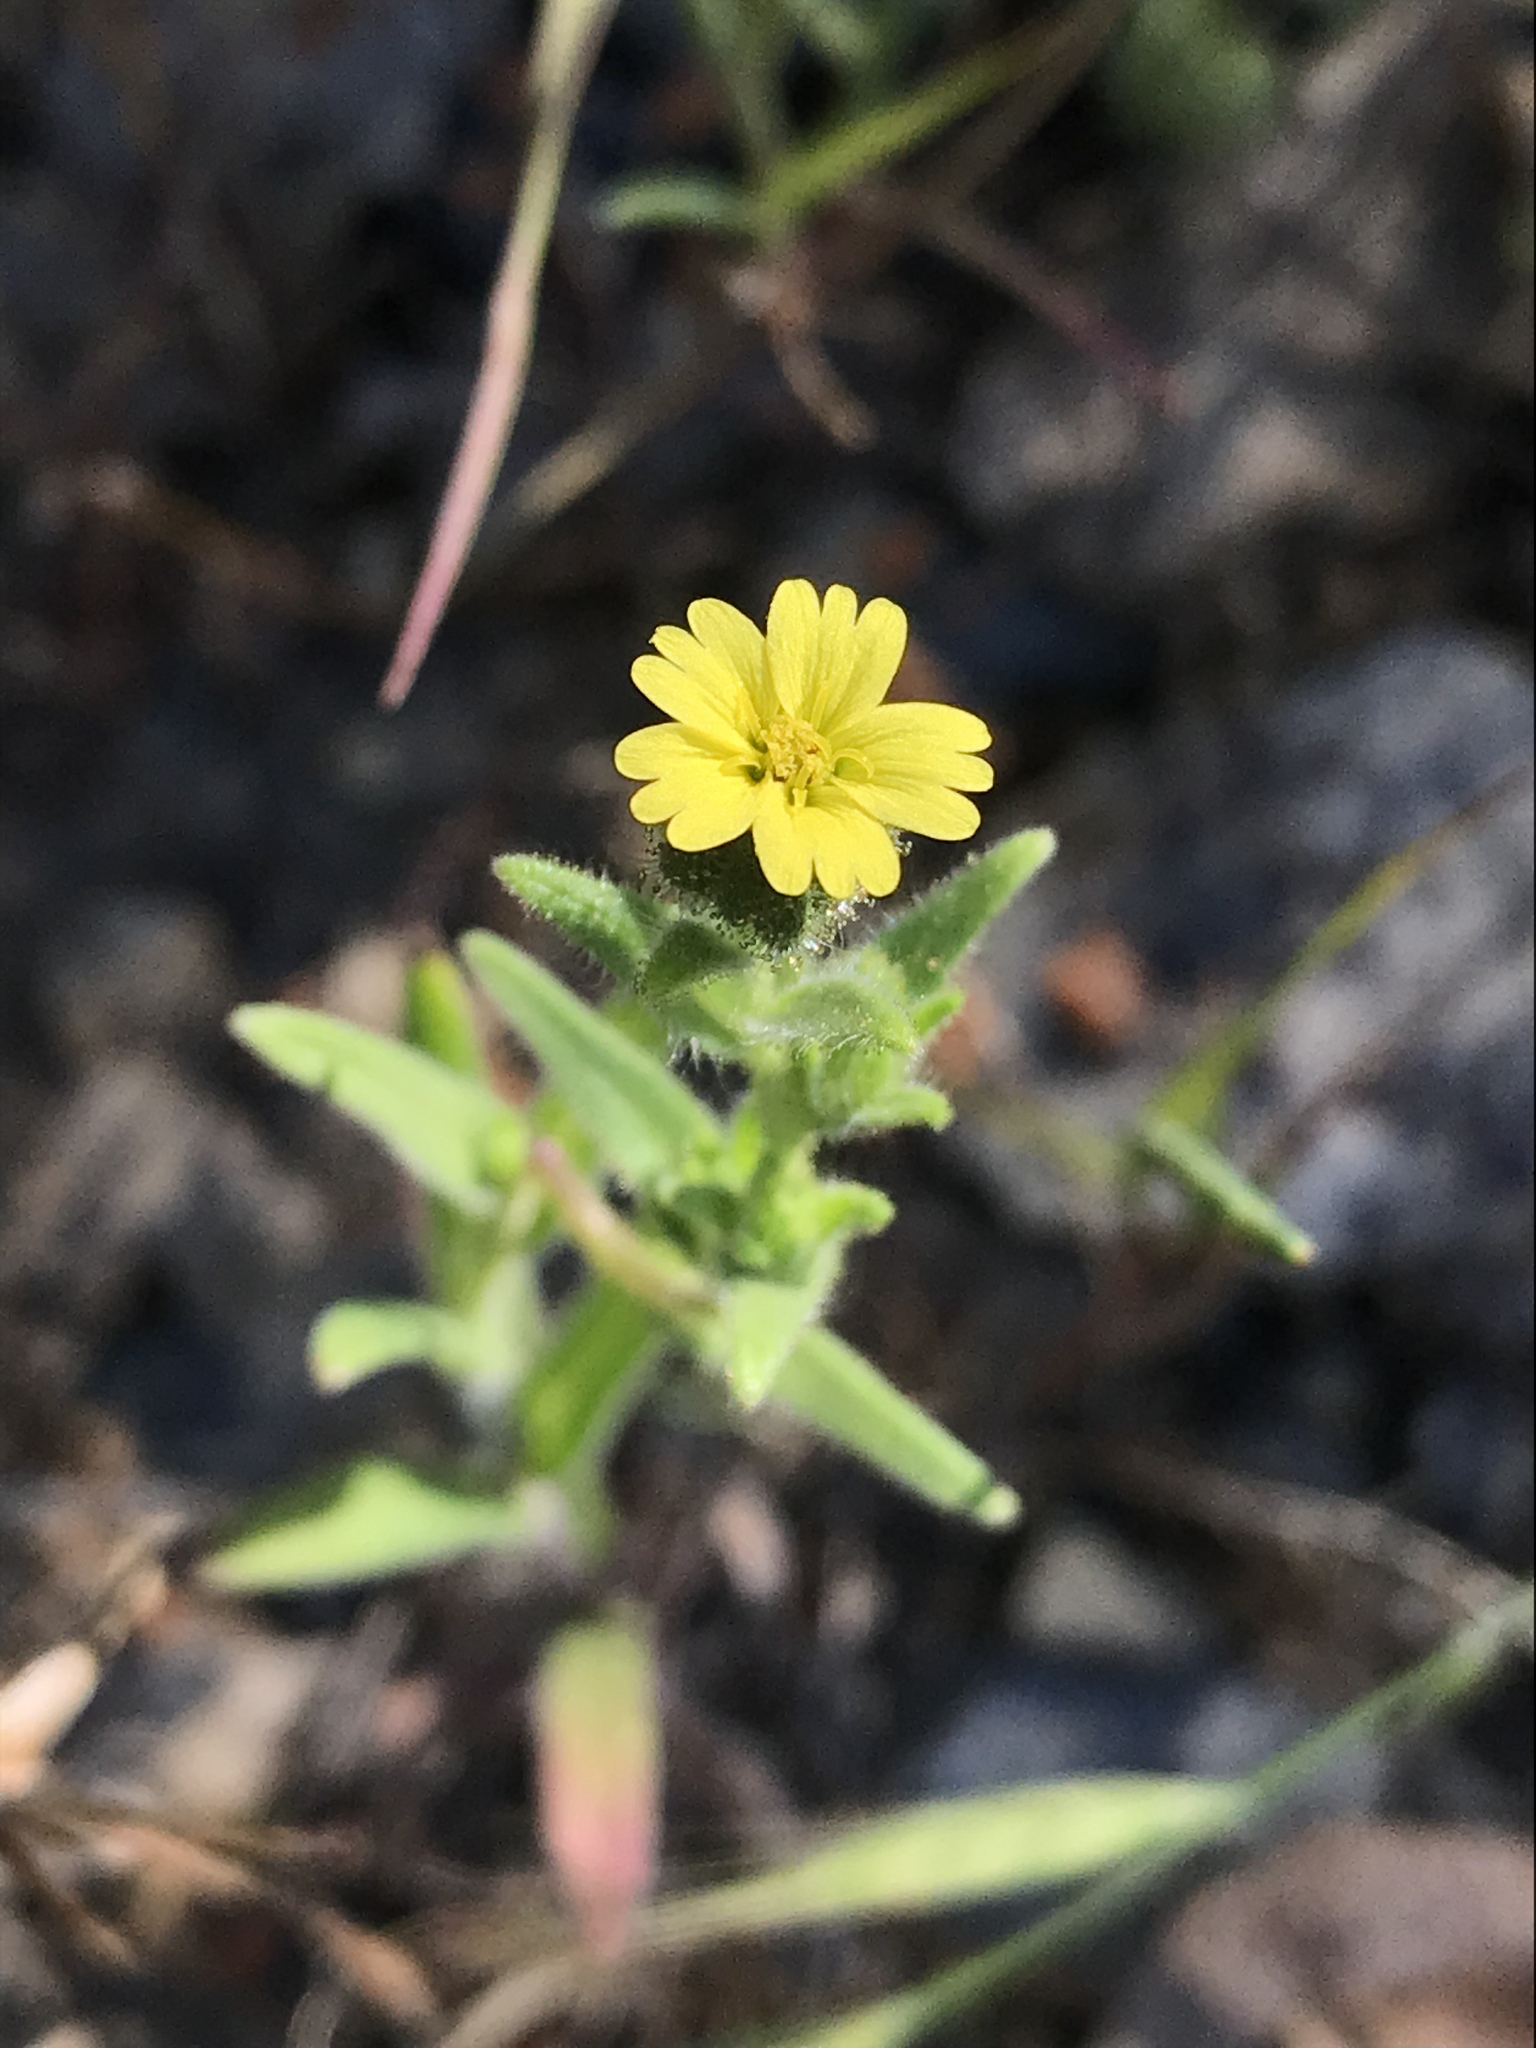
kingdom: Plantae
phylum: Tracheophyta
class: Magnoliopsida
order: Asterales
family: Asteraceae
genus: Madia
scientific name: Madia gracilis
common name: Grassy tarweed
